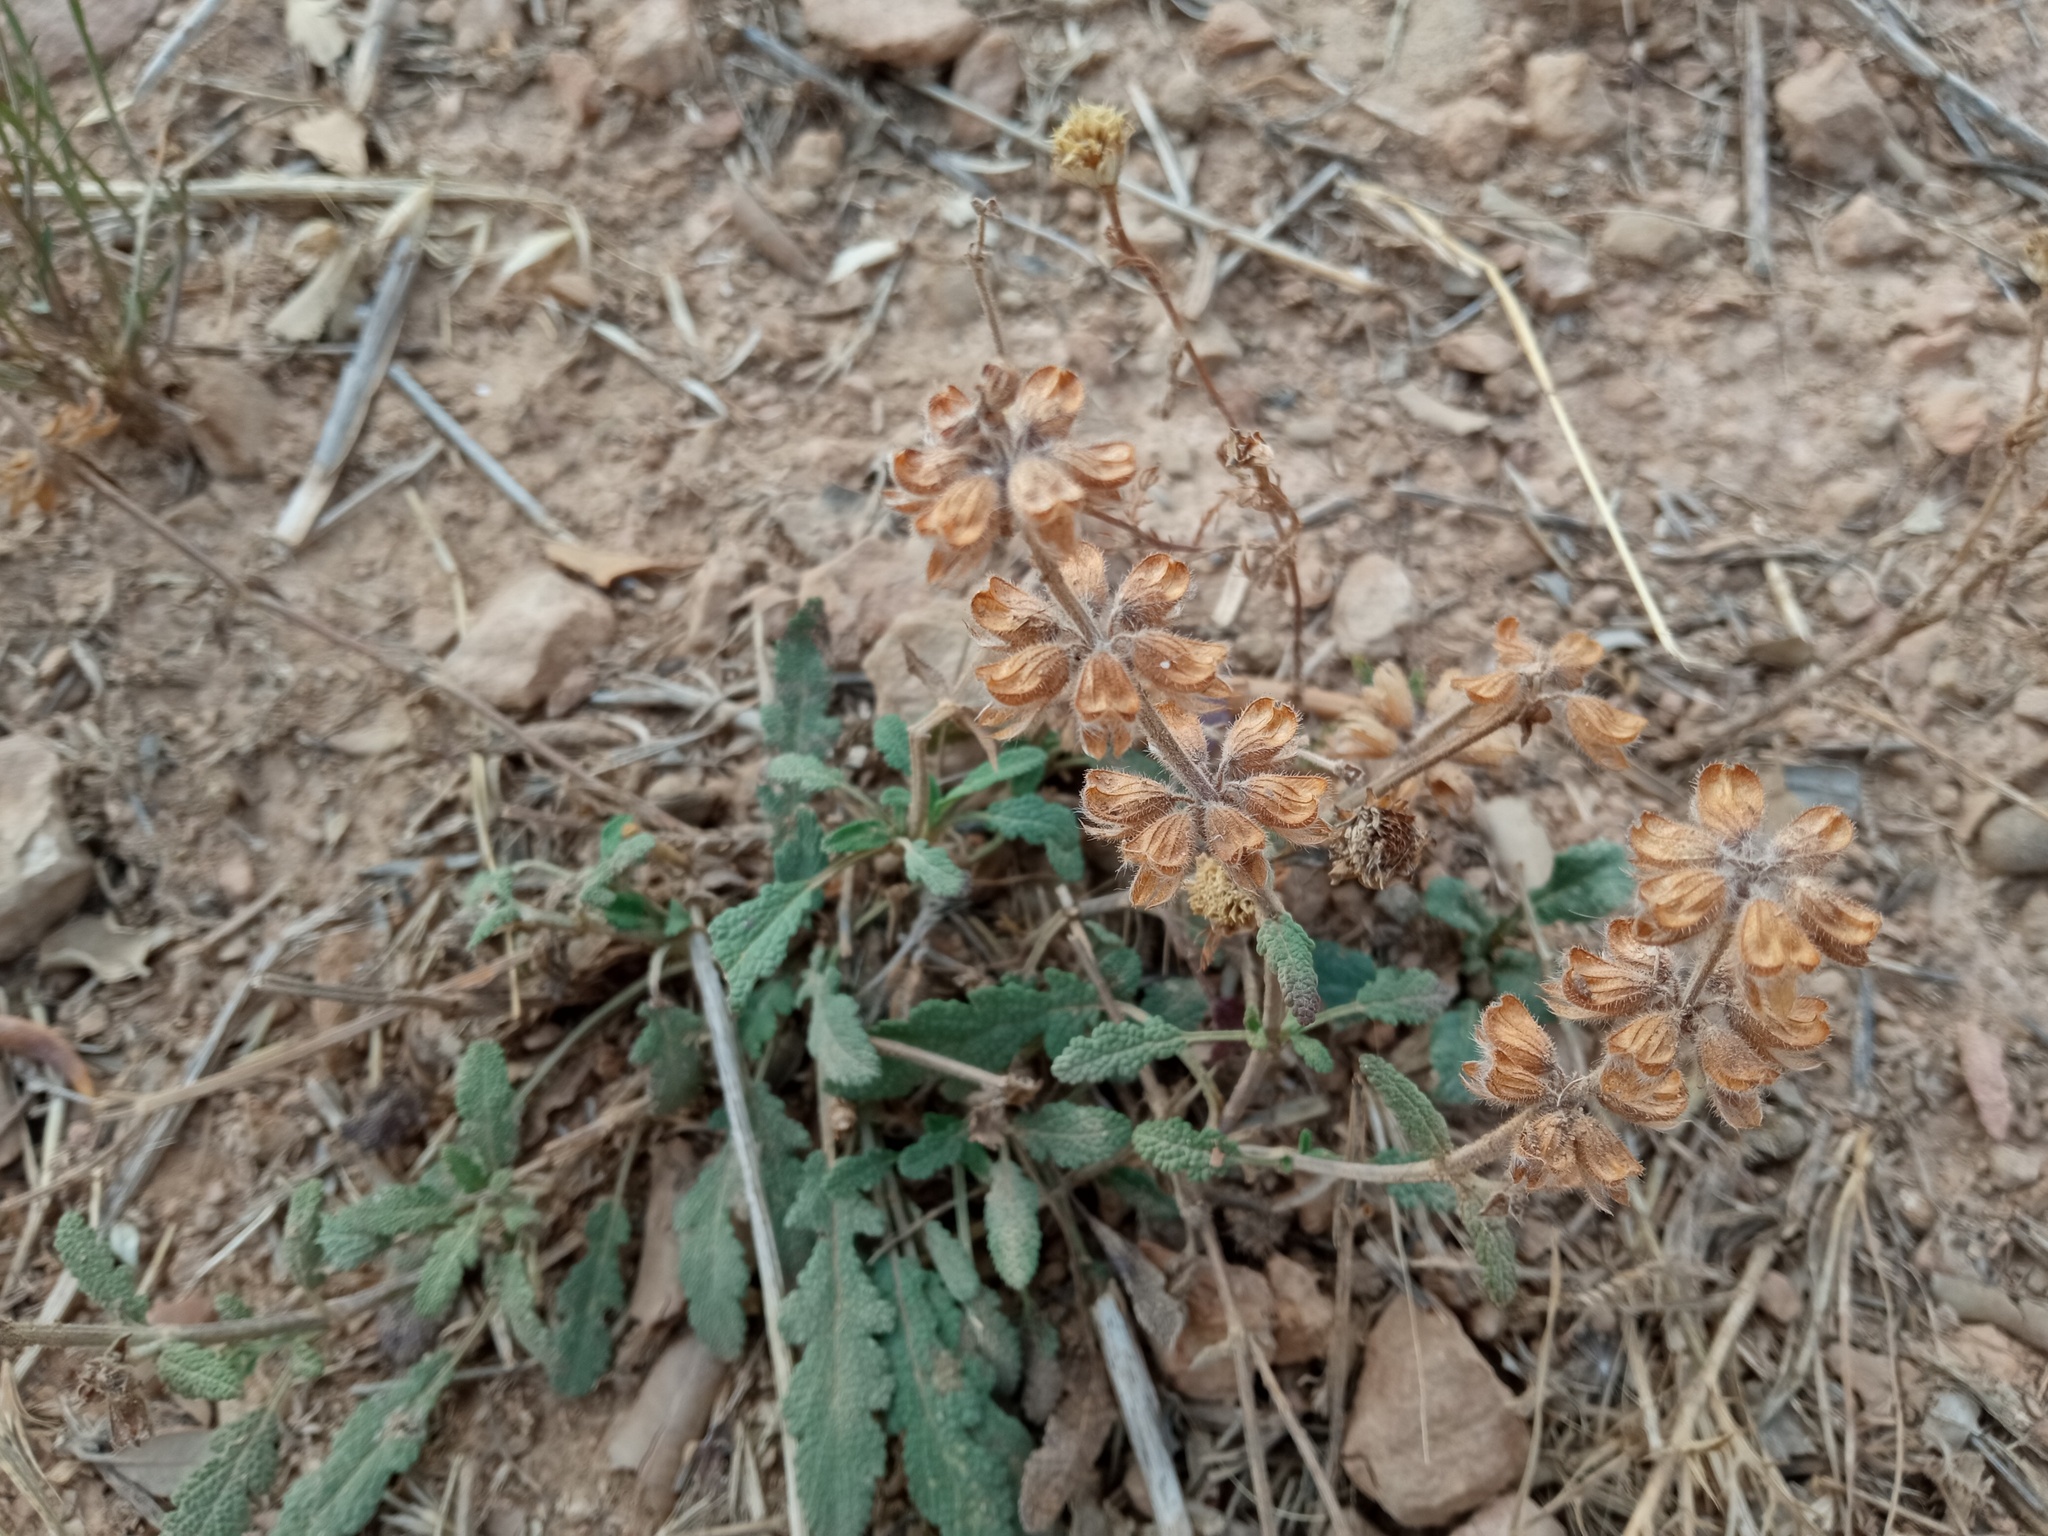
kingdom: Plantae
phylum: Tracheophyta
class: Magnoliopsida
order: Lamiales
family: Lamiaceae
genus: Salvia
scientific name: Salvia verbenaca
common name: Wild clary
